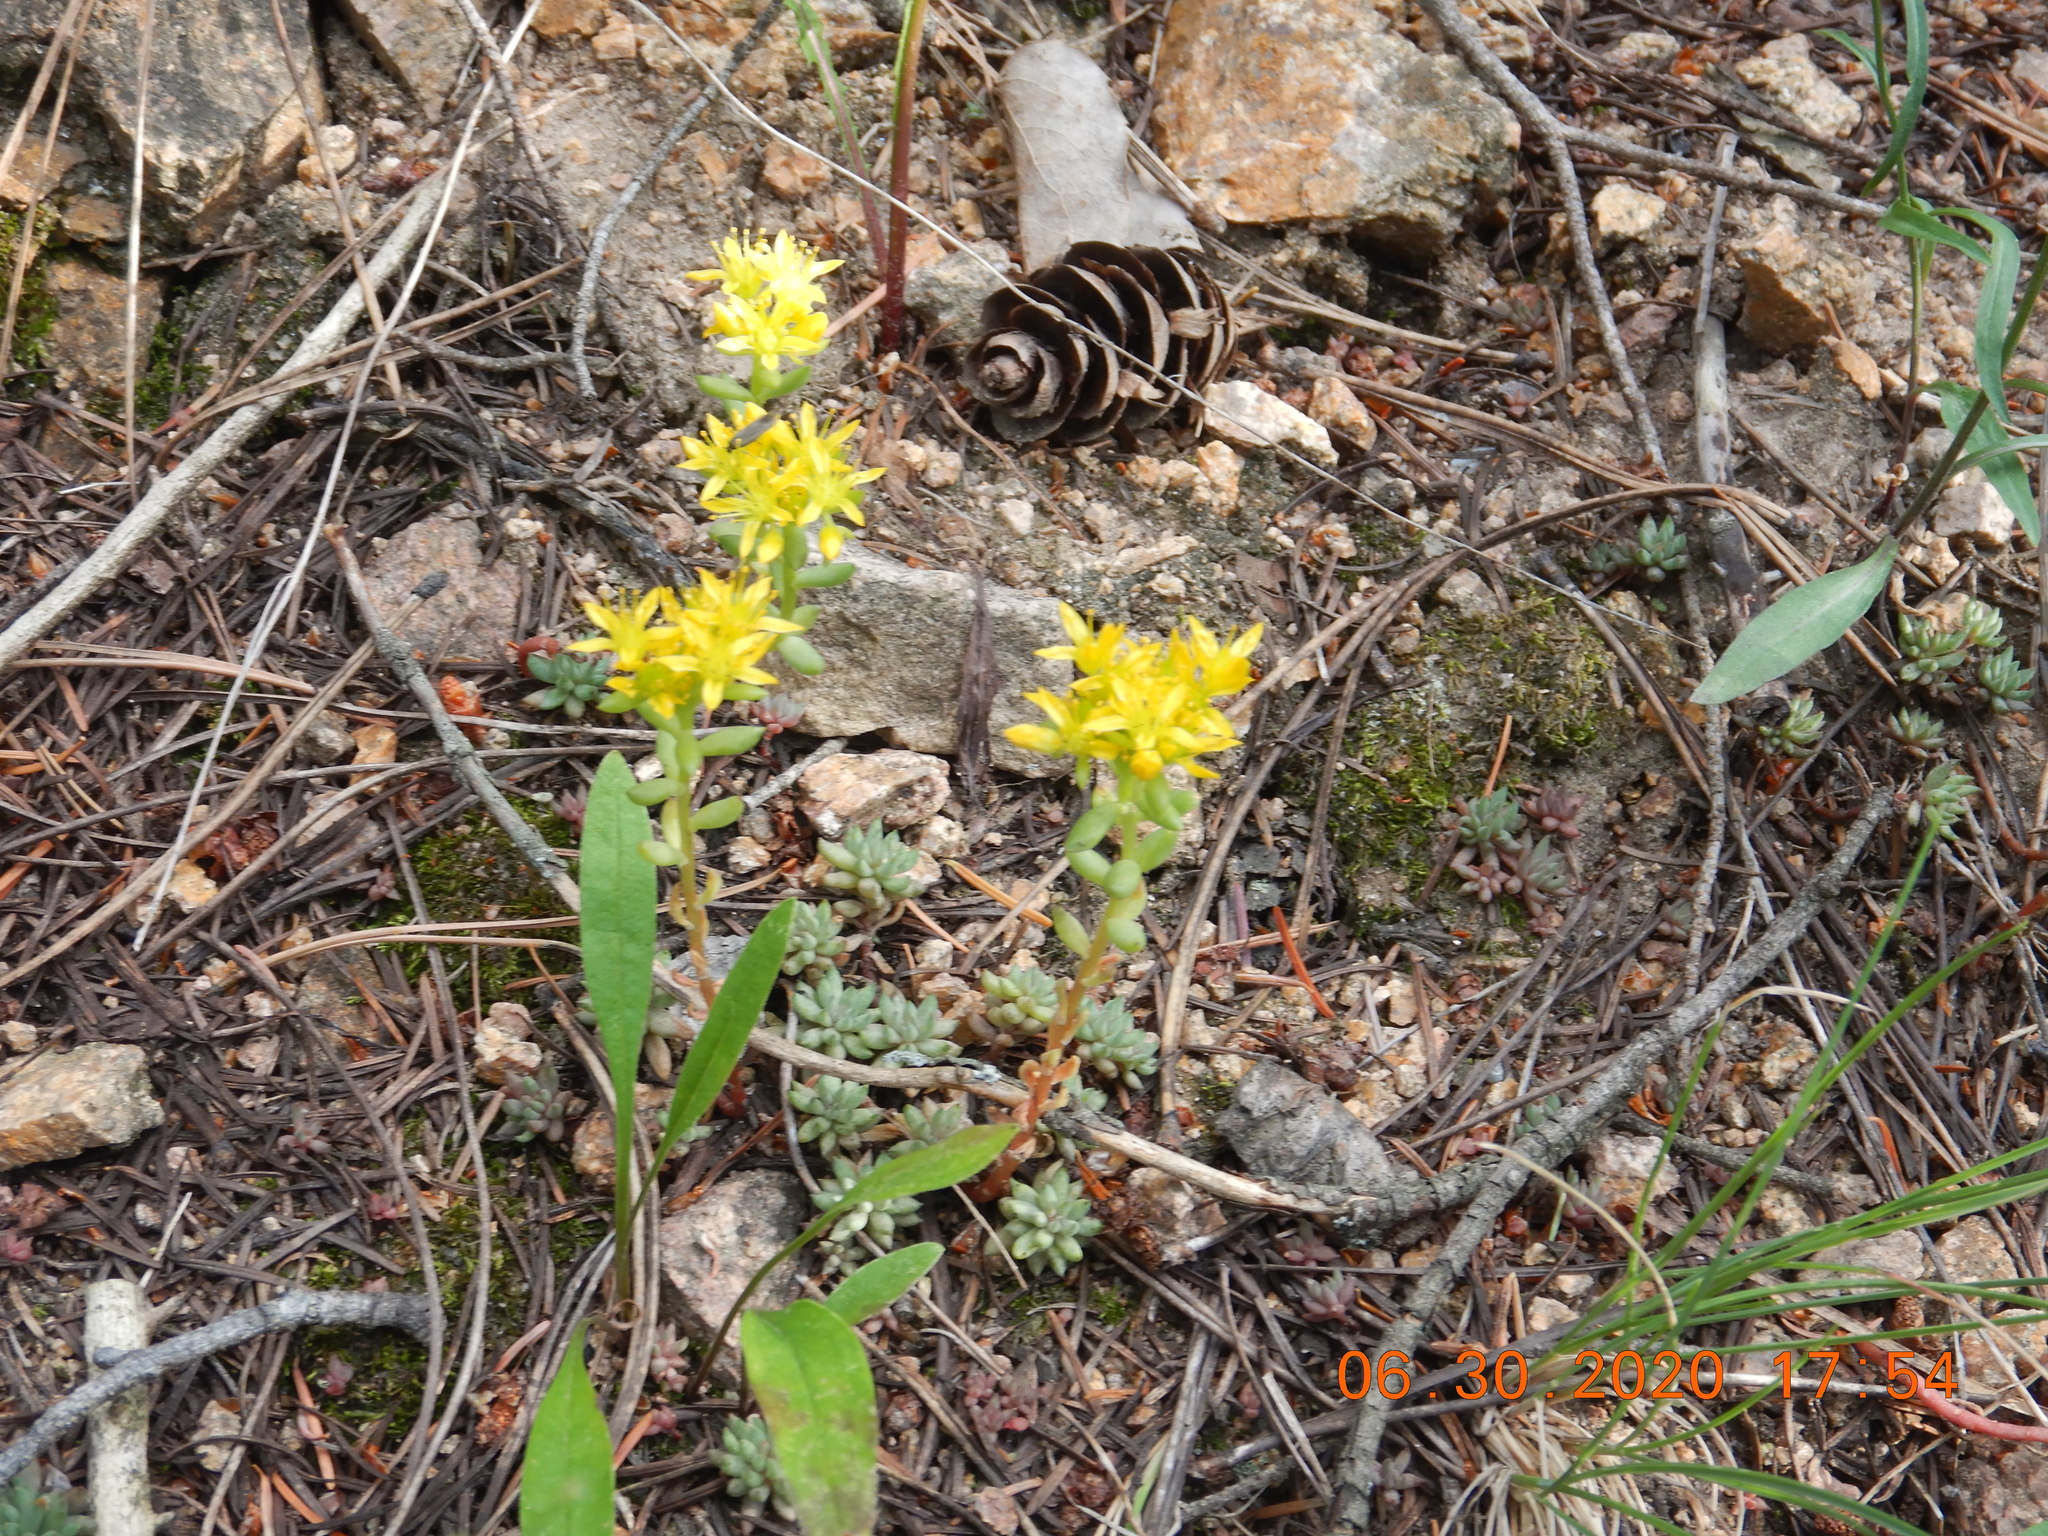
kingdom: Plantae
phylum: Tracheophyta
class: Magnoliopsida
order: Saxifragales
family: Crassulaceae
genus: Sedum
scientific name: Sedum lanceolatum
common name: Common stonecrop
